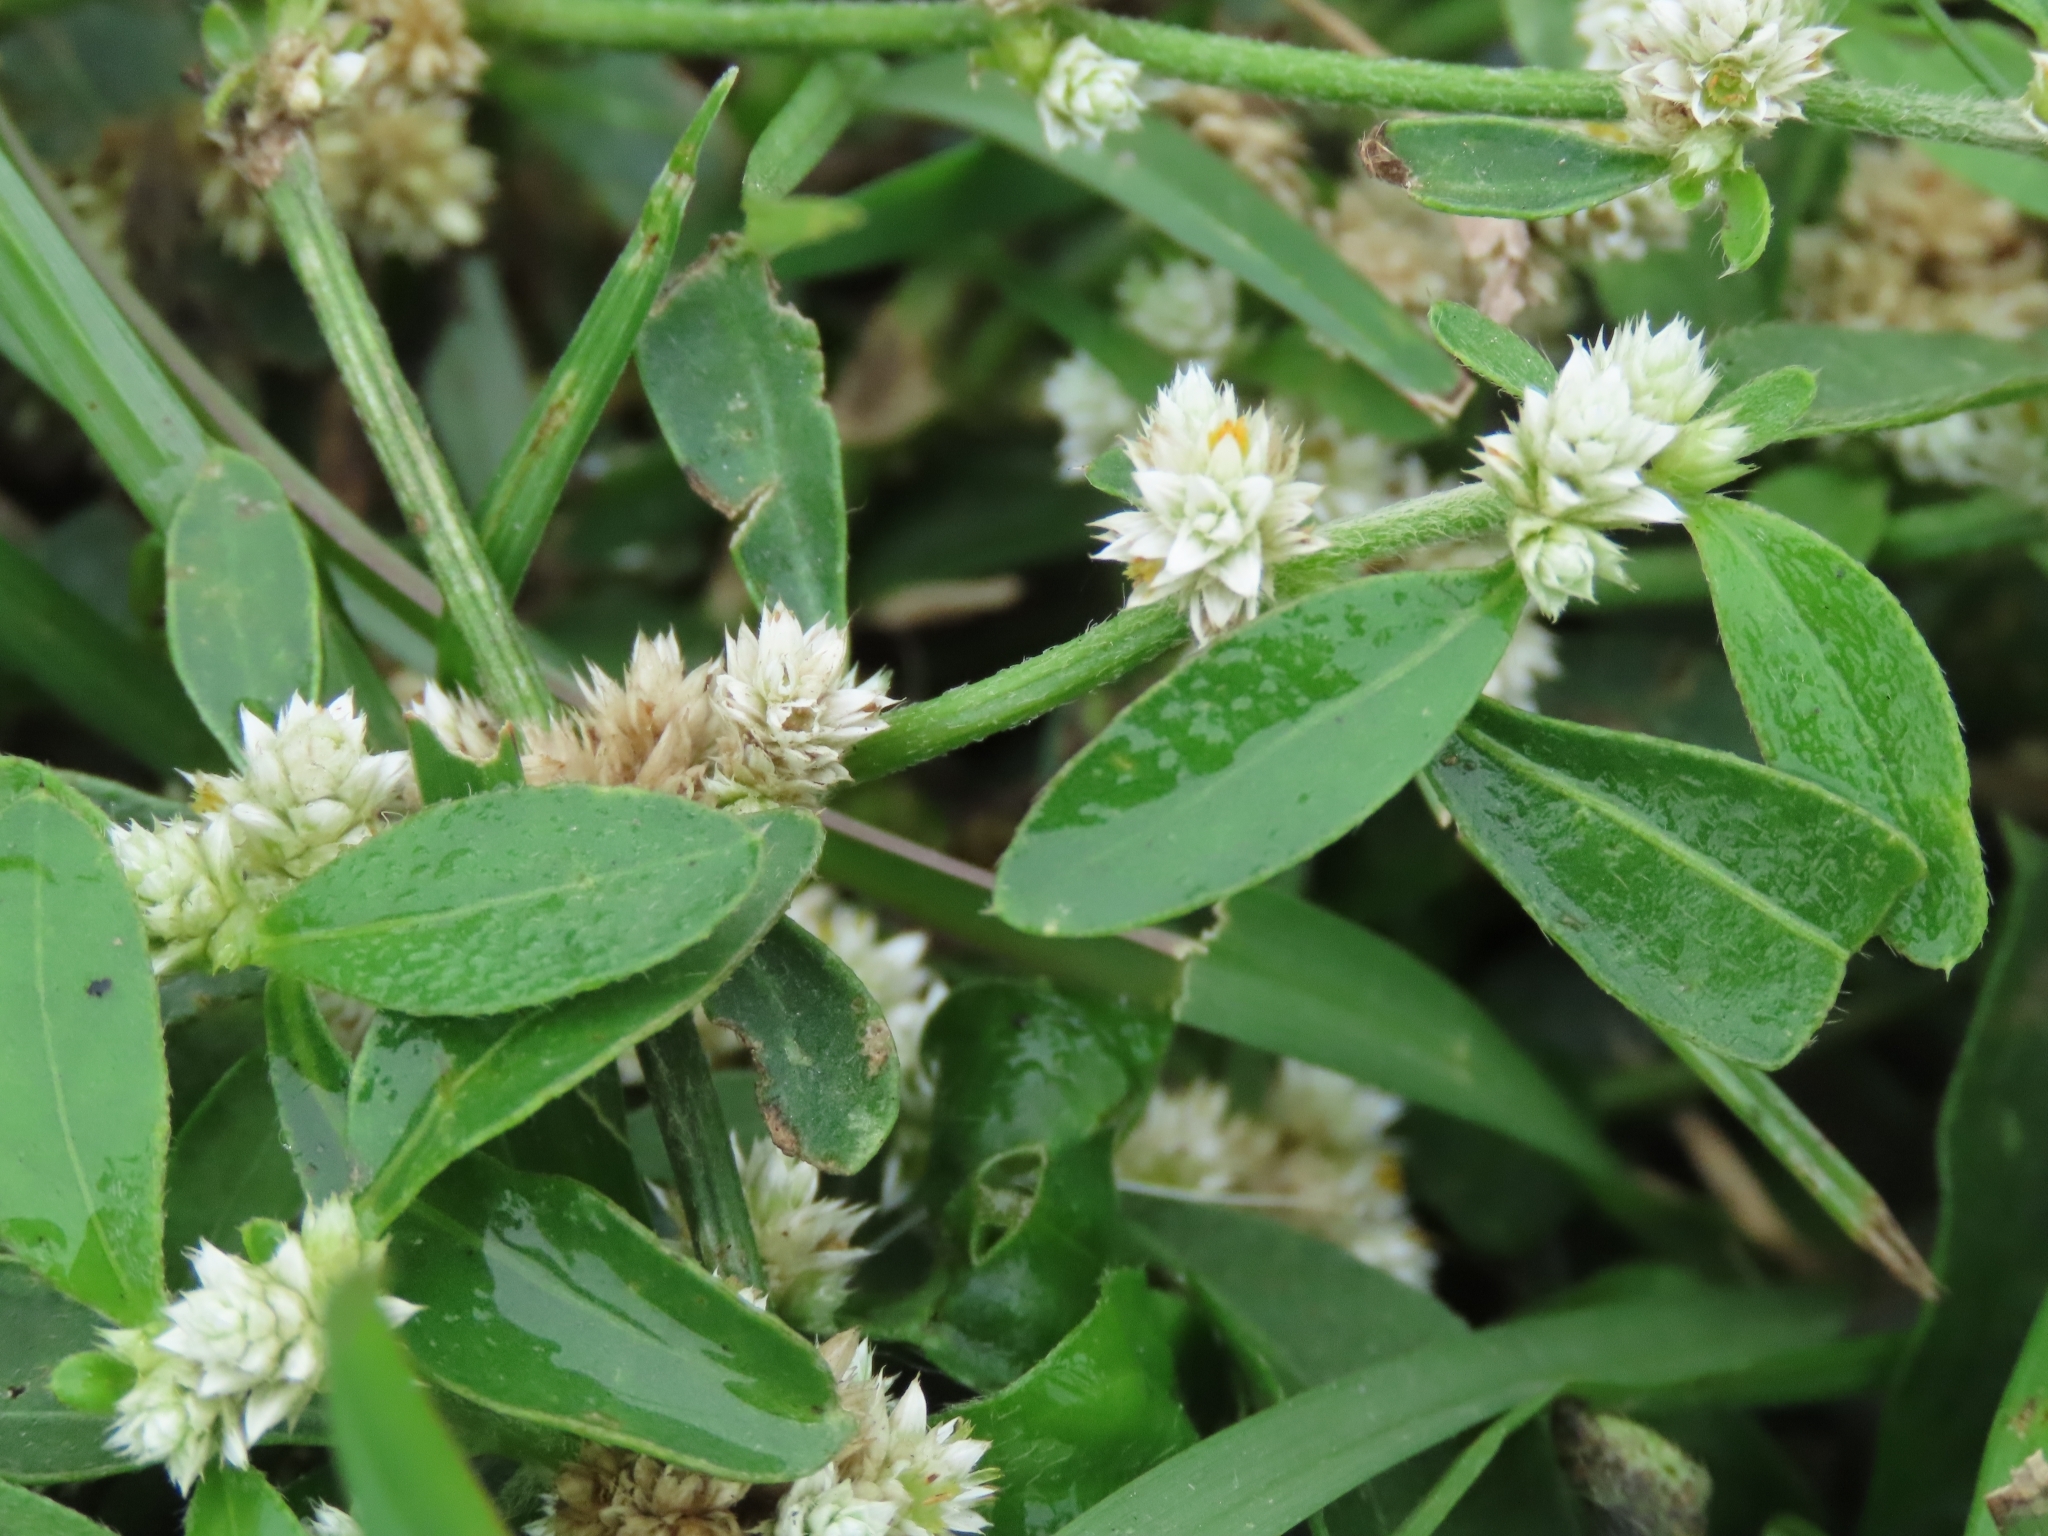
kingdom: Plantae
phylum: Tracheophyta
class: Magnoliopsida
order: Caryophyllales
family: Amaranthaceae
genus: Alternanthera
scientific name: Alternanthera bettzickiana
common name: Calico-plant
